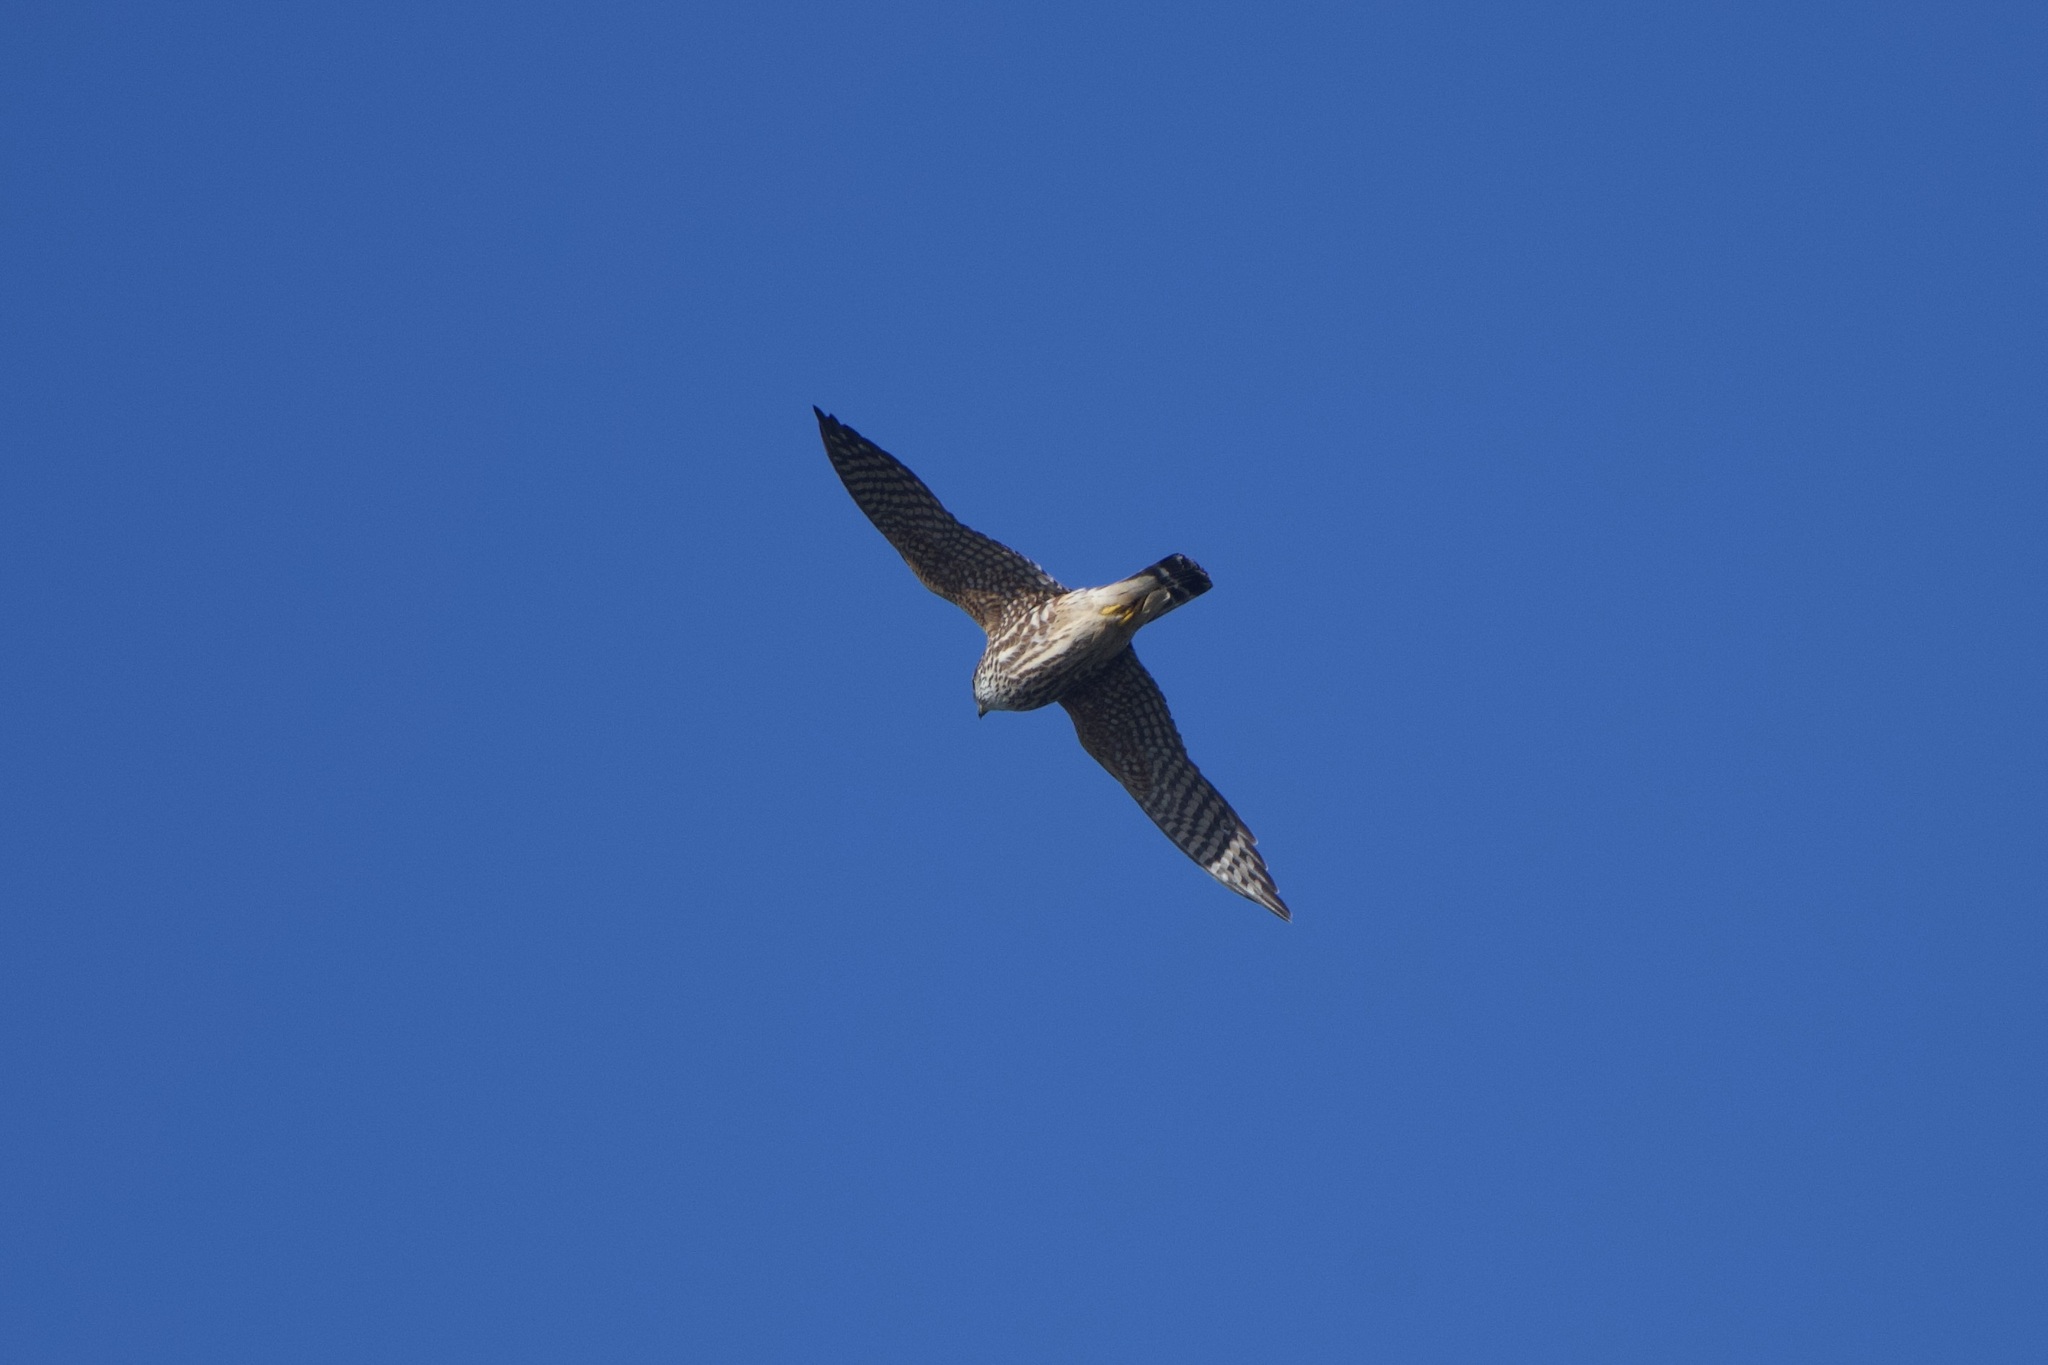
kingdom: Animalia
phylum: Chordata
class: Aves
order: Falconiformes
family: Falconidae
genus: Falco
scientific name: Falco columbarius
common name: Merlin
